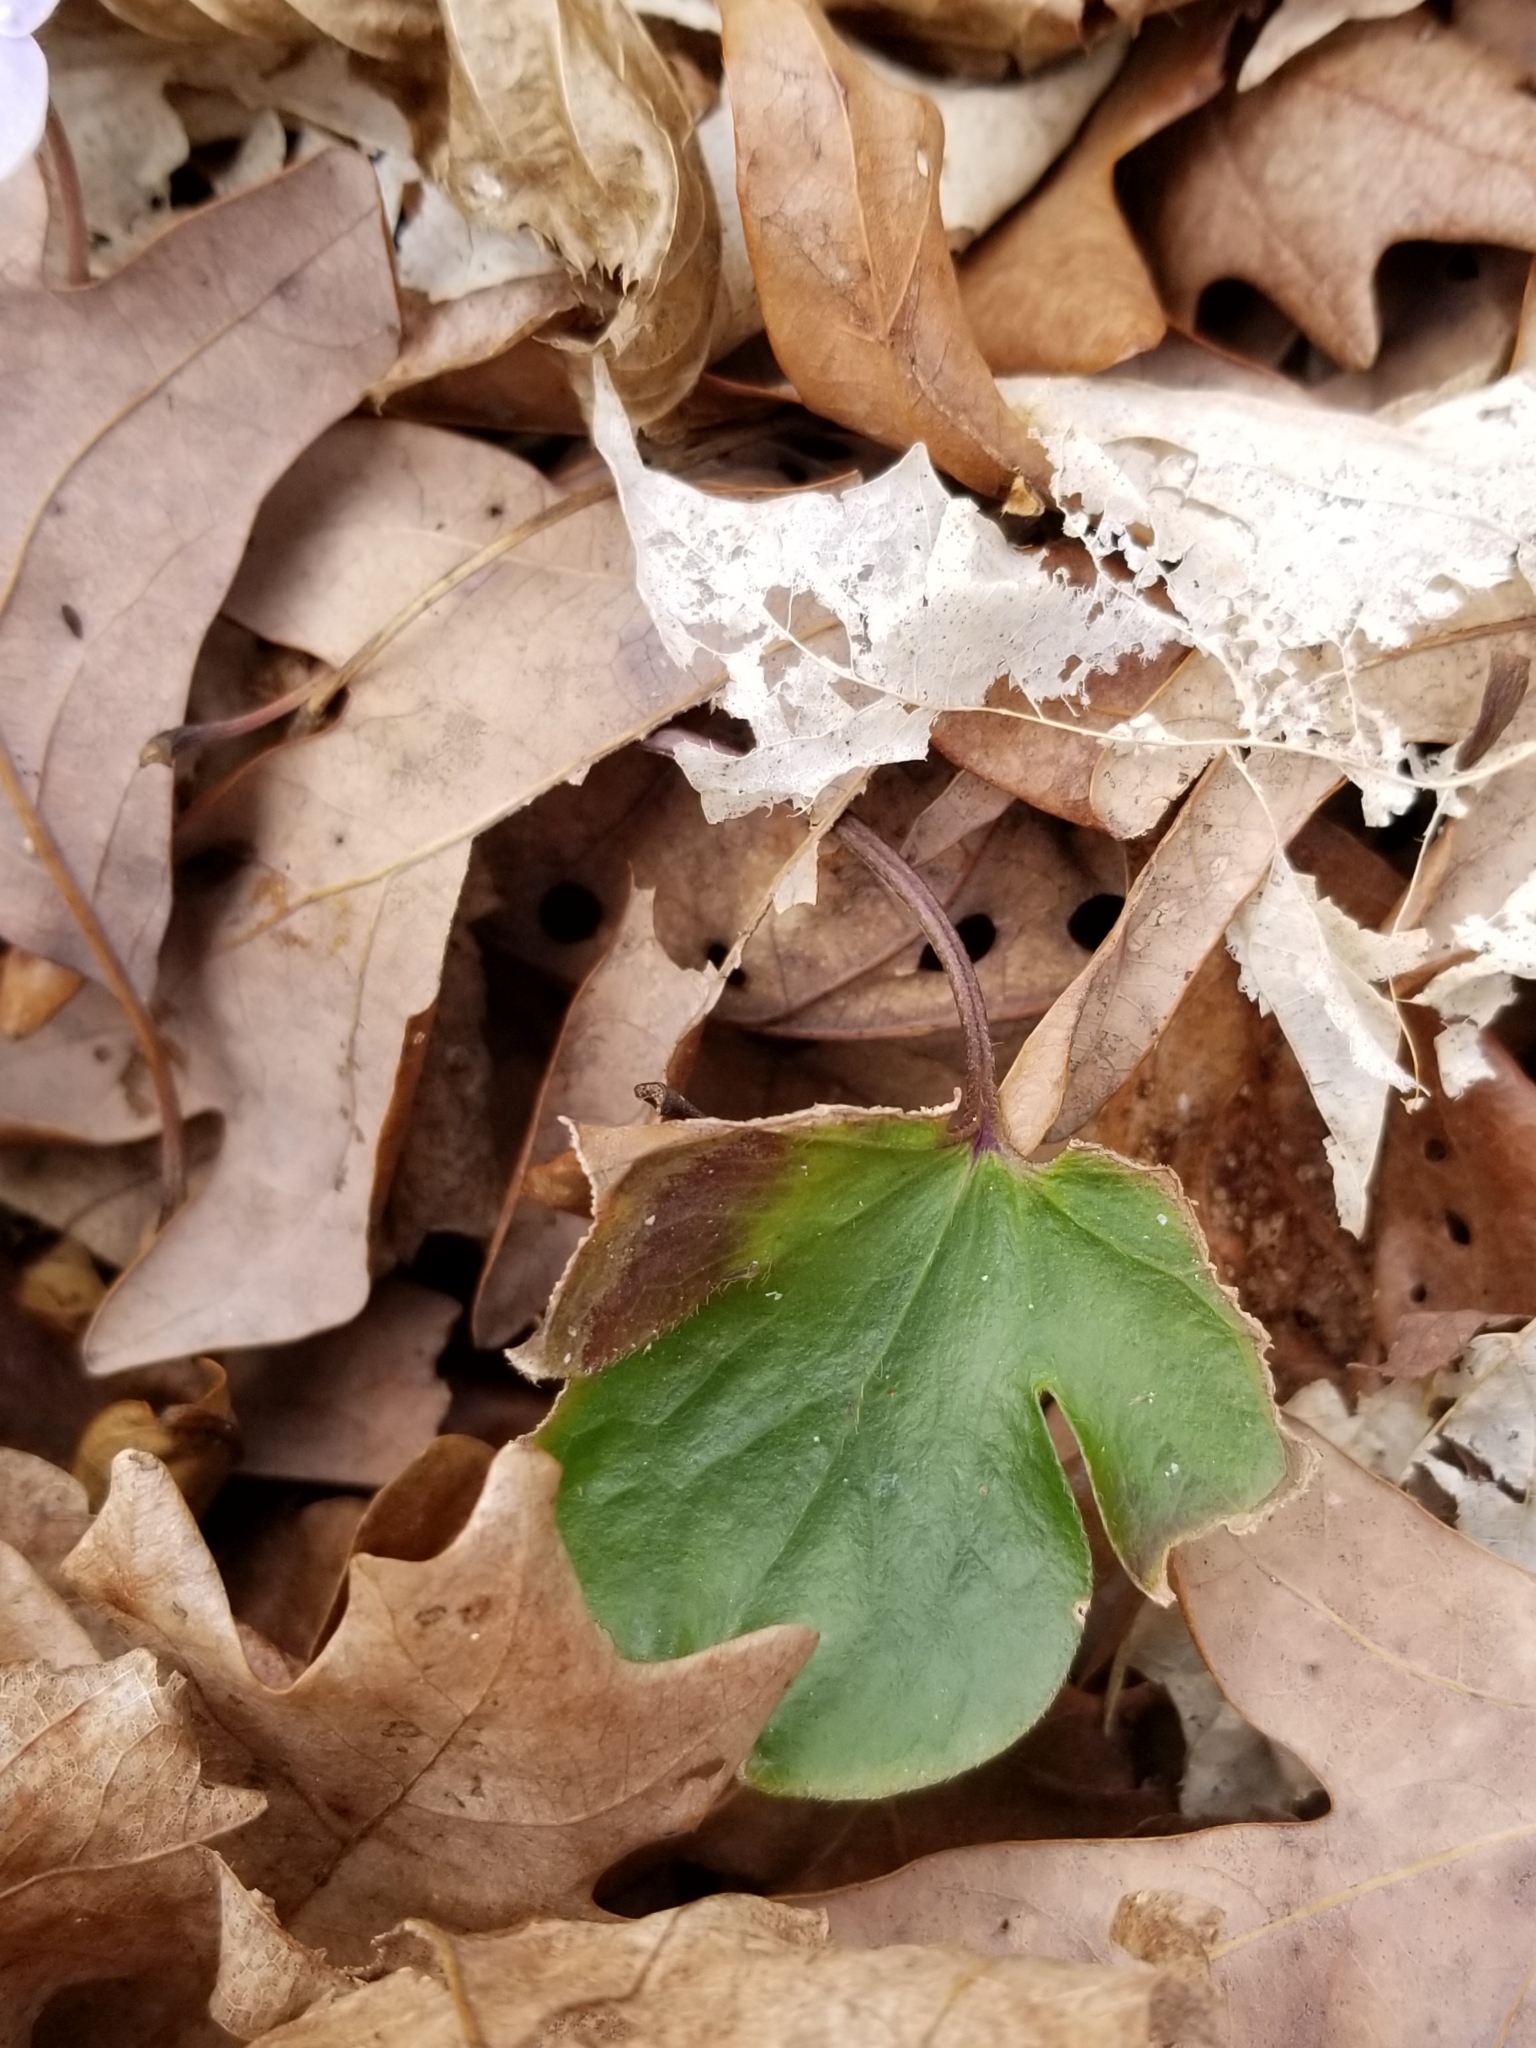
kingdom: Plantae
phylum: Tracheophyta
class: Magnoliopsida
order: Ranunculales
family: Ranunculaceae
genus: Hepatica
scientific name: Hepatica americana
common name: American hepatica
